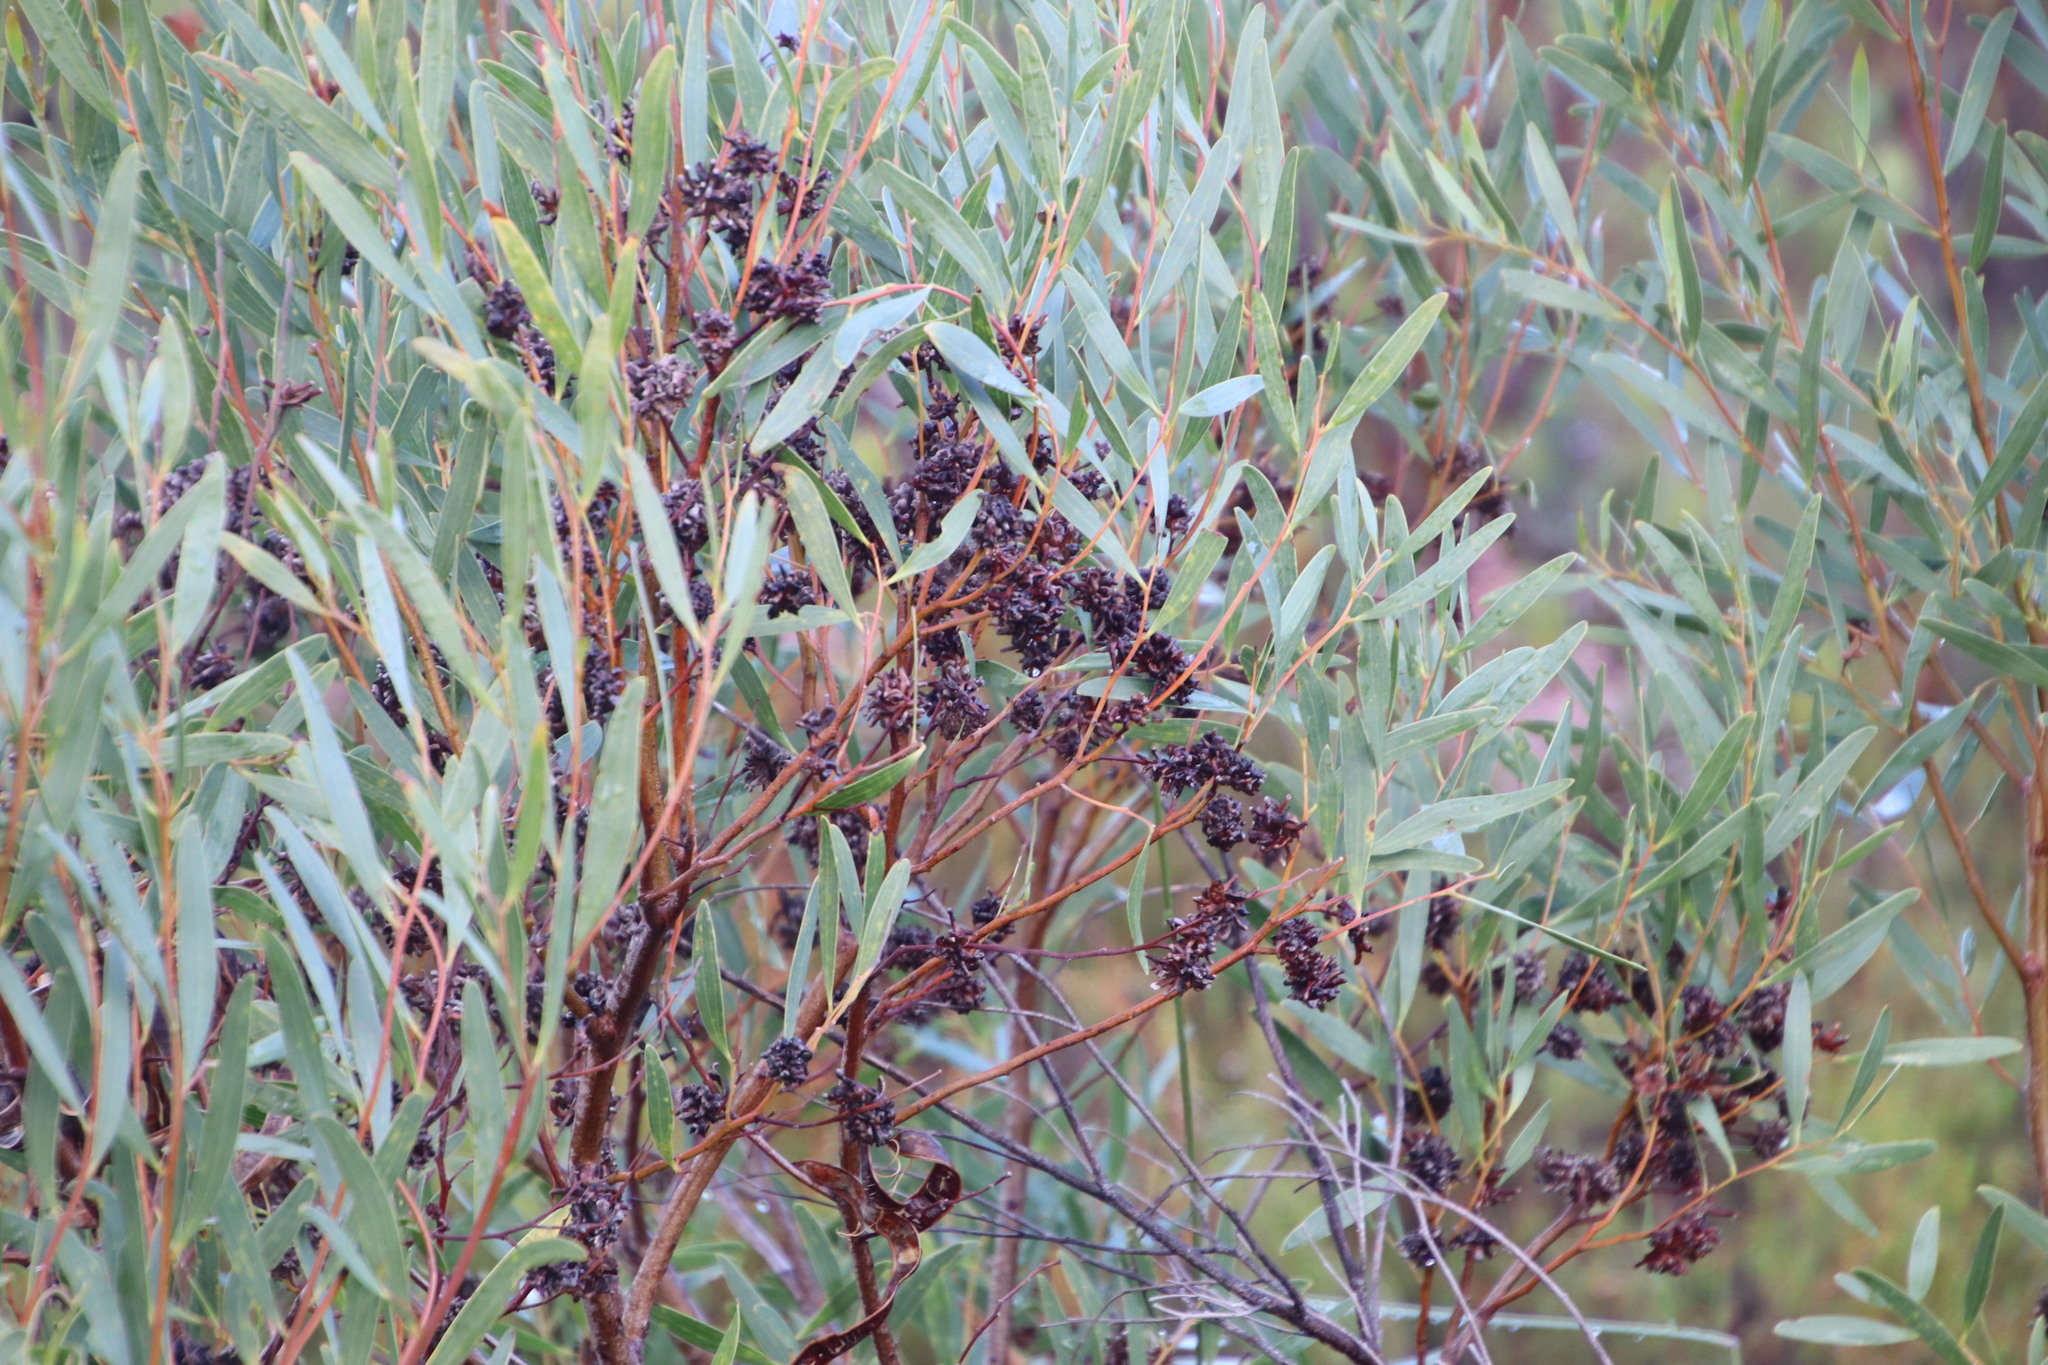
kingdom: Animalia
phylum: Arthropoda
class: Insecta
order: Diptera
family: Cecidomyiidae
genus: Dasineura
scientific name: Dasineura dielsi
